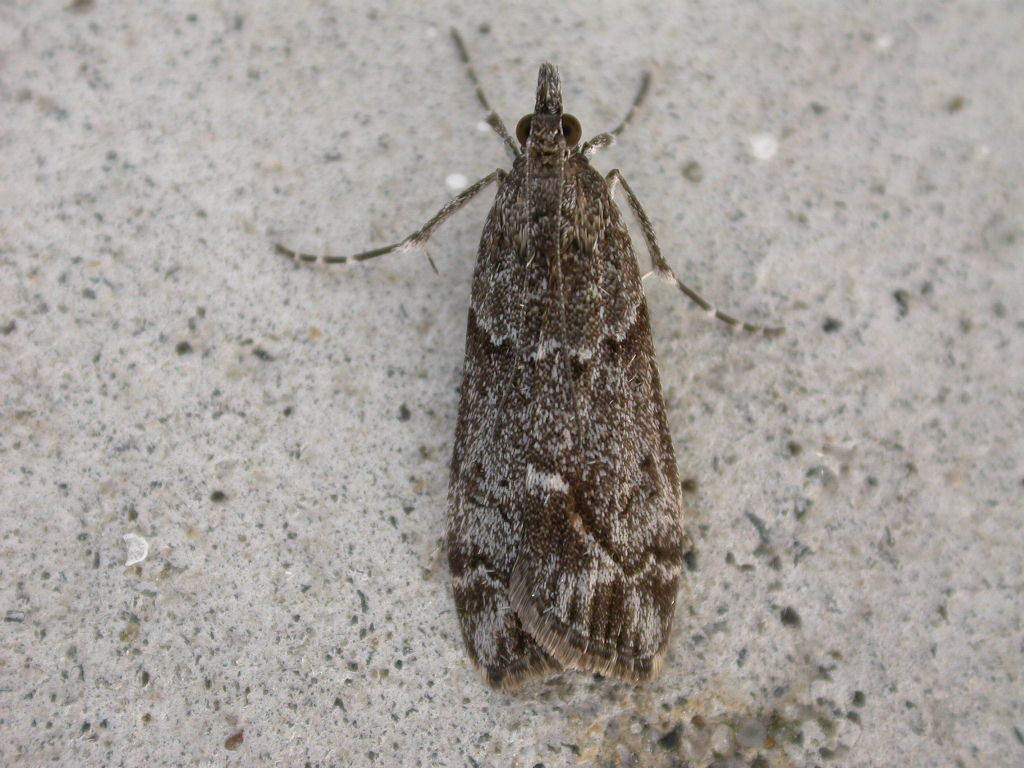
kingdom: Animalia
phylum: Arthropoda
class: Insecta
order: Lepidoptera
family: Crambidae
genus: Eudonia
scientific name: Eudonia submarginalis
